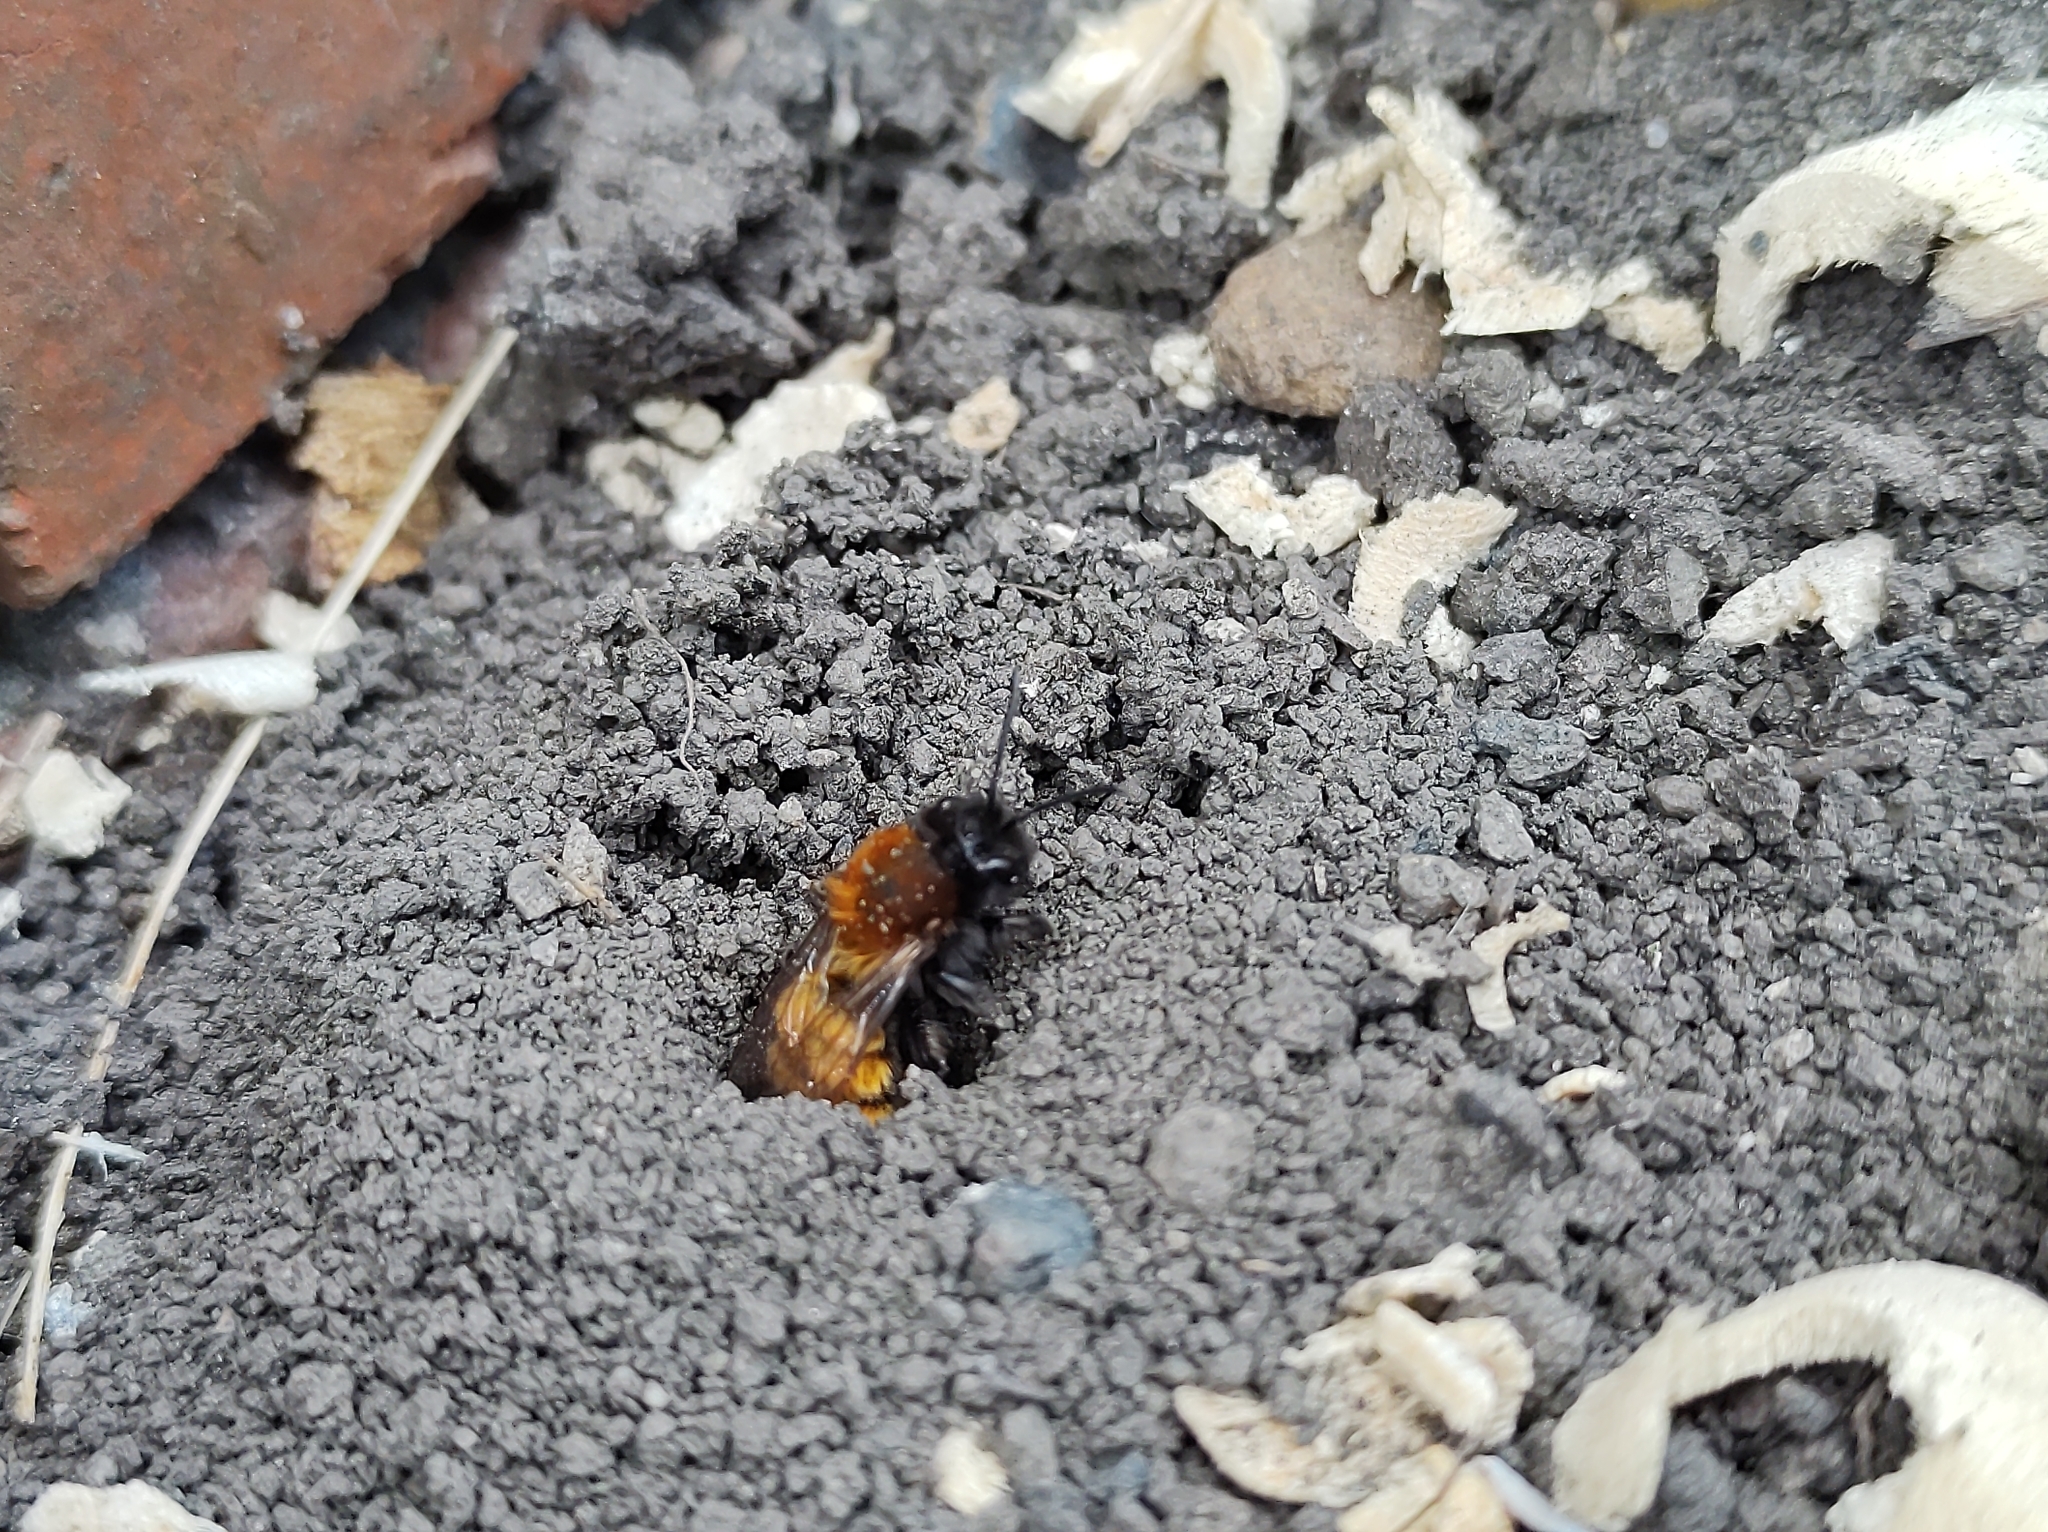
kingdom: Animalia
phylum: Arthropoda
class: Insecta
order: Hymenoptera
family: Andrenidae
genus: Andrena
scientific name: Andrena fulva
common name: Tawny mining bee
